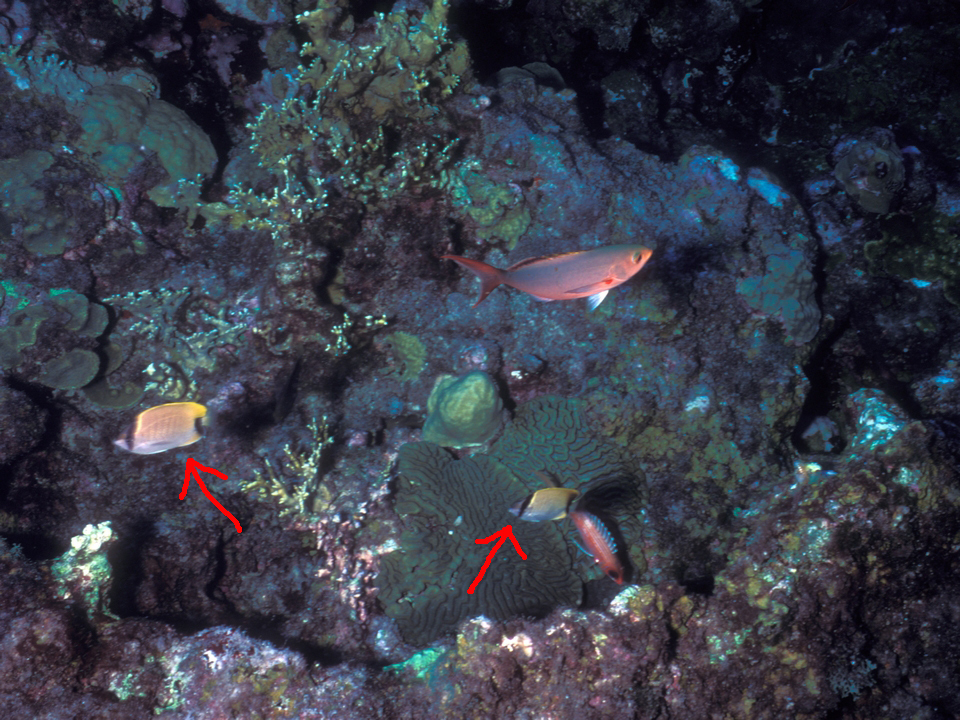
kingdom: Animalia
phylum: Chordata
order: Perciformes
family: Chaetodontidae
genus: Chaetodon
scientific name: Chaetodon sedentarius
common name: Reef butterflyfish
